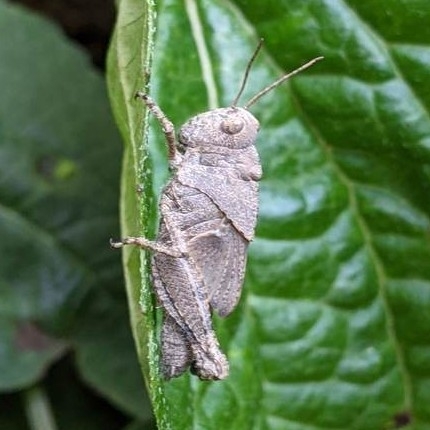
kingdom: Animalia
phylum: Arthropoda
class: Insecta
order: Orthoptera
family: Acrididae
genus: Dissosteira
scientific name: Dissosteira carolina
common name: Carolina grasshopper
